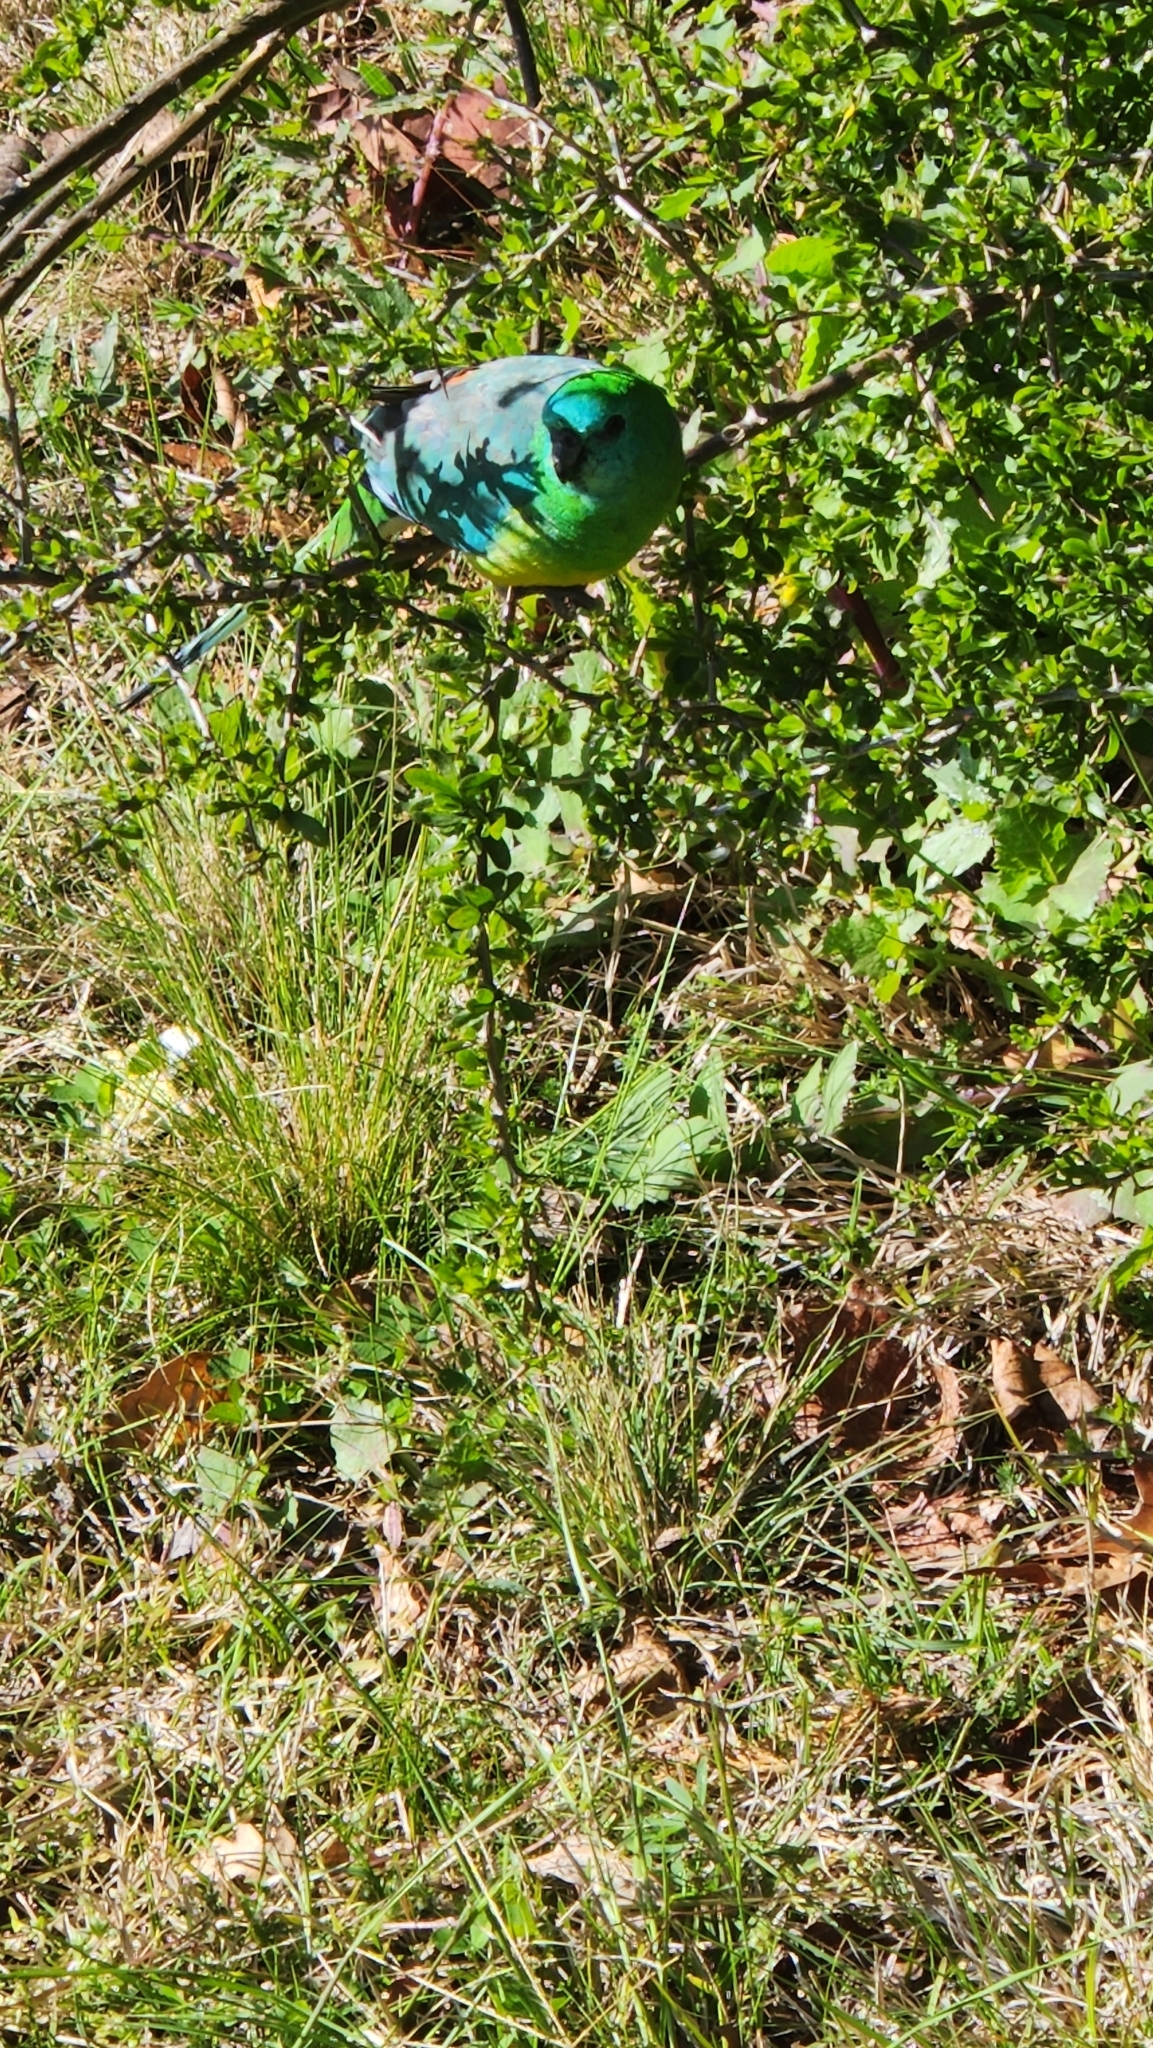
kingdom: Animalia
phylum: Chordata
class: Aves
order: Psittaciformes
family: Psittacidae
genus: Psephotus
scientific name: Psephotus haematonotus
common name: Red-rumped parrot
